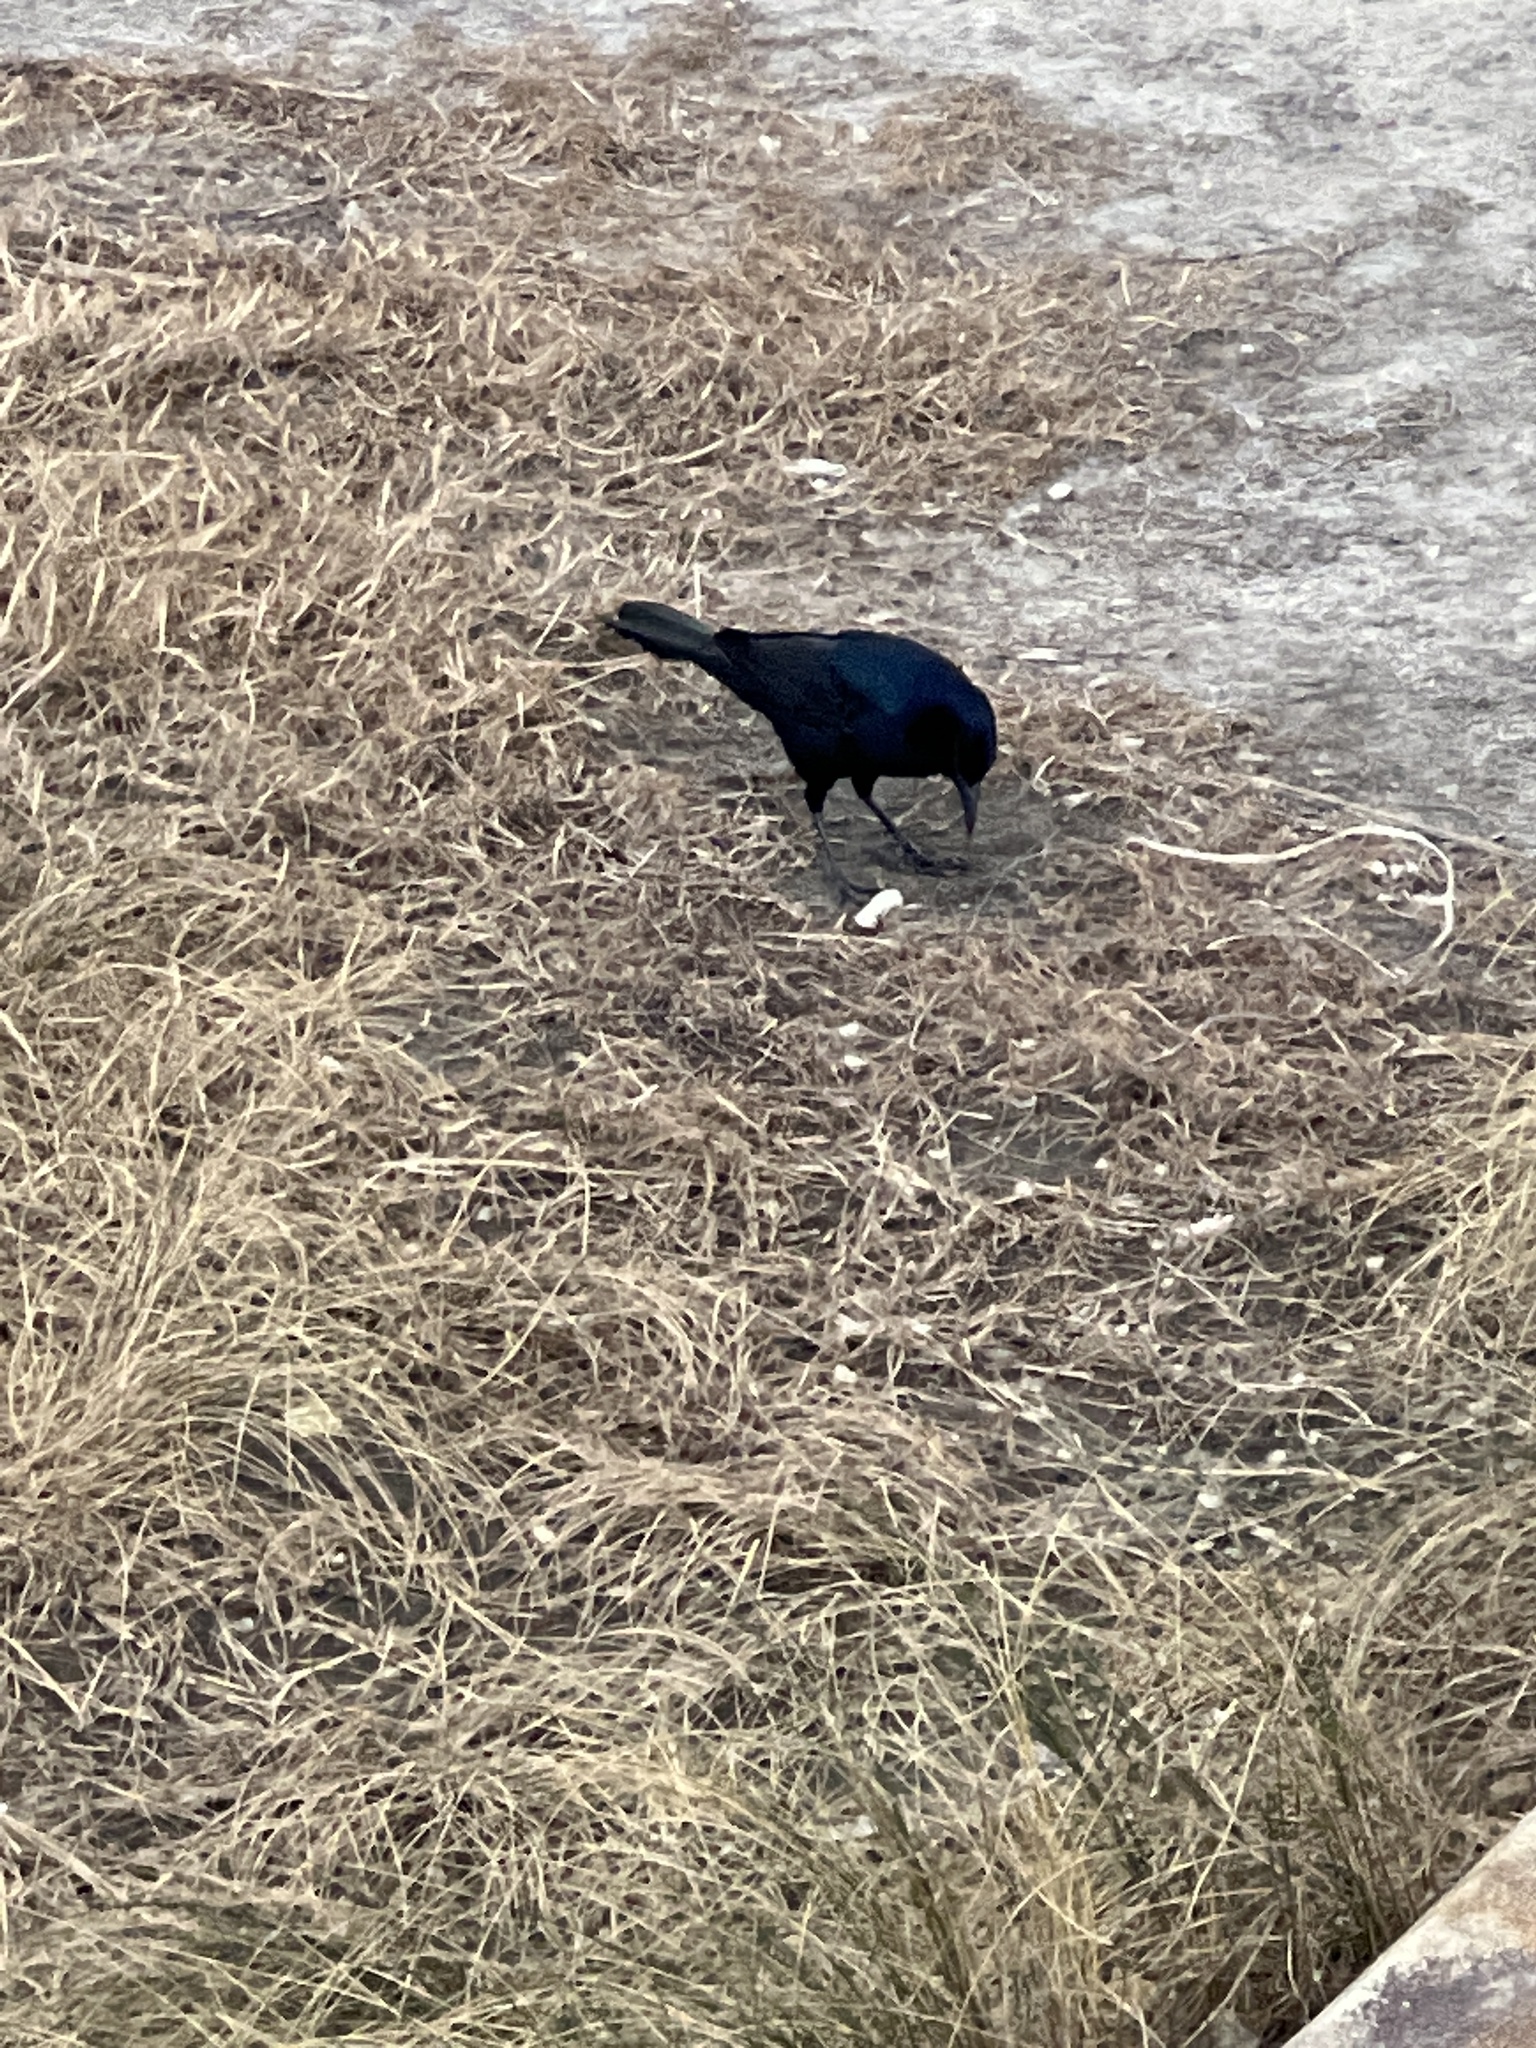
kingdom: Animalia
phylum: Chordata
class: Aves
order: Passeriformes
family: Icteridae
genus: Quiscalus
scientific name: Quiscalus major
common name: Boat-tailed grackle
